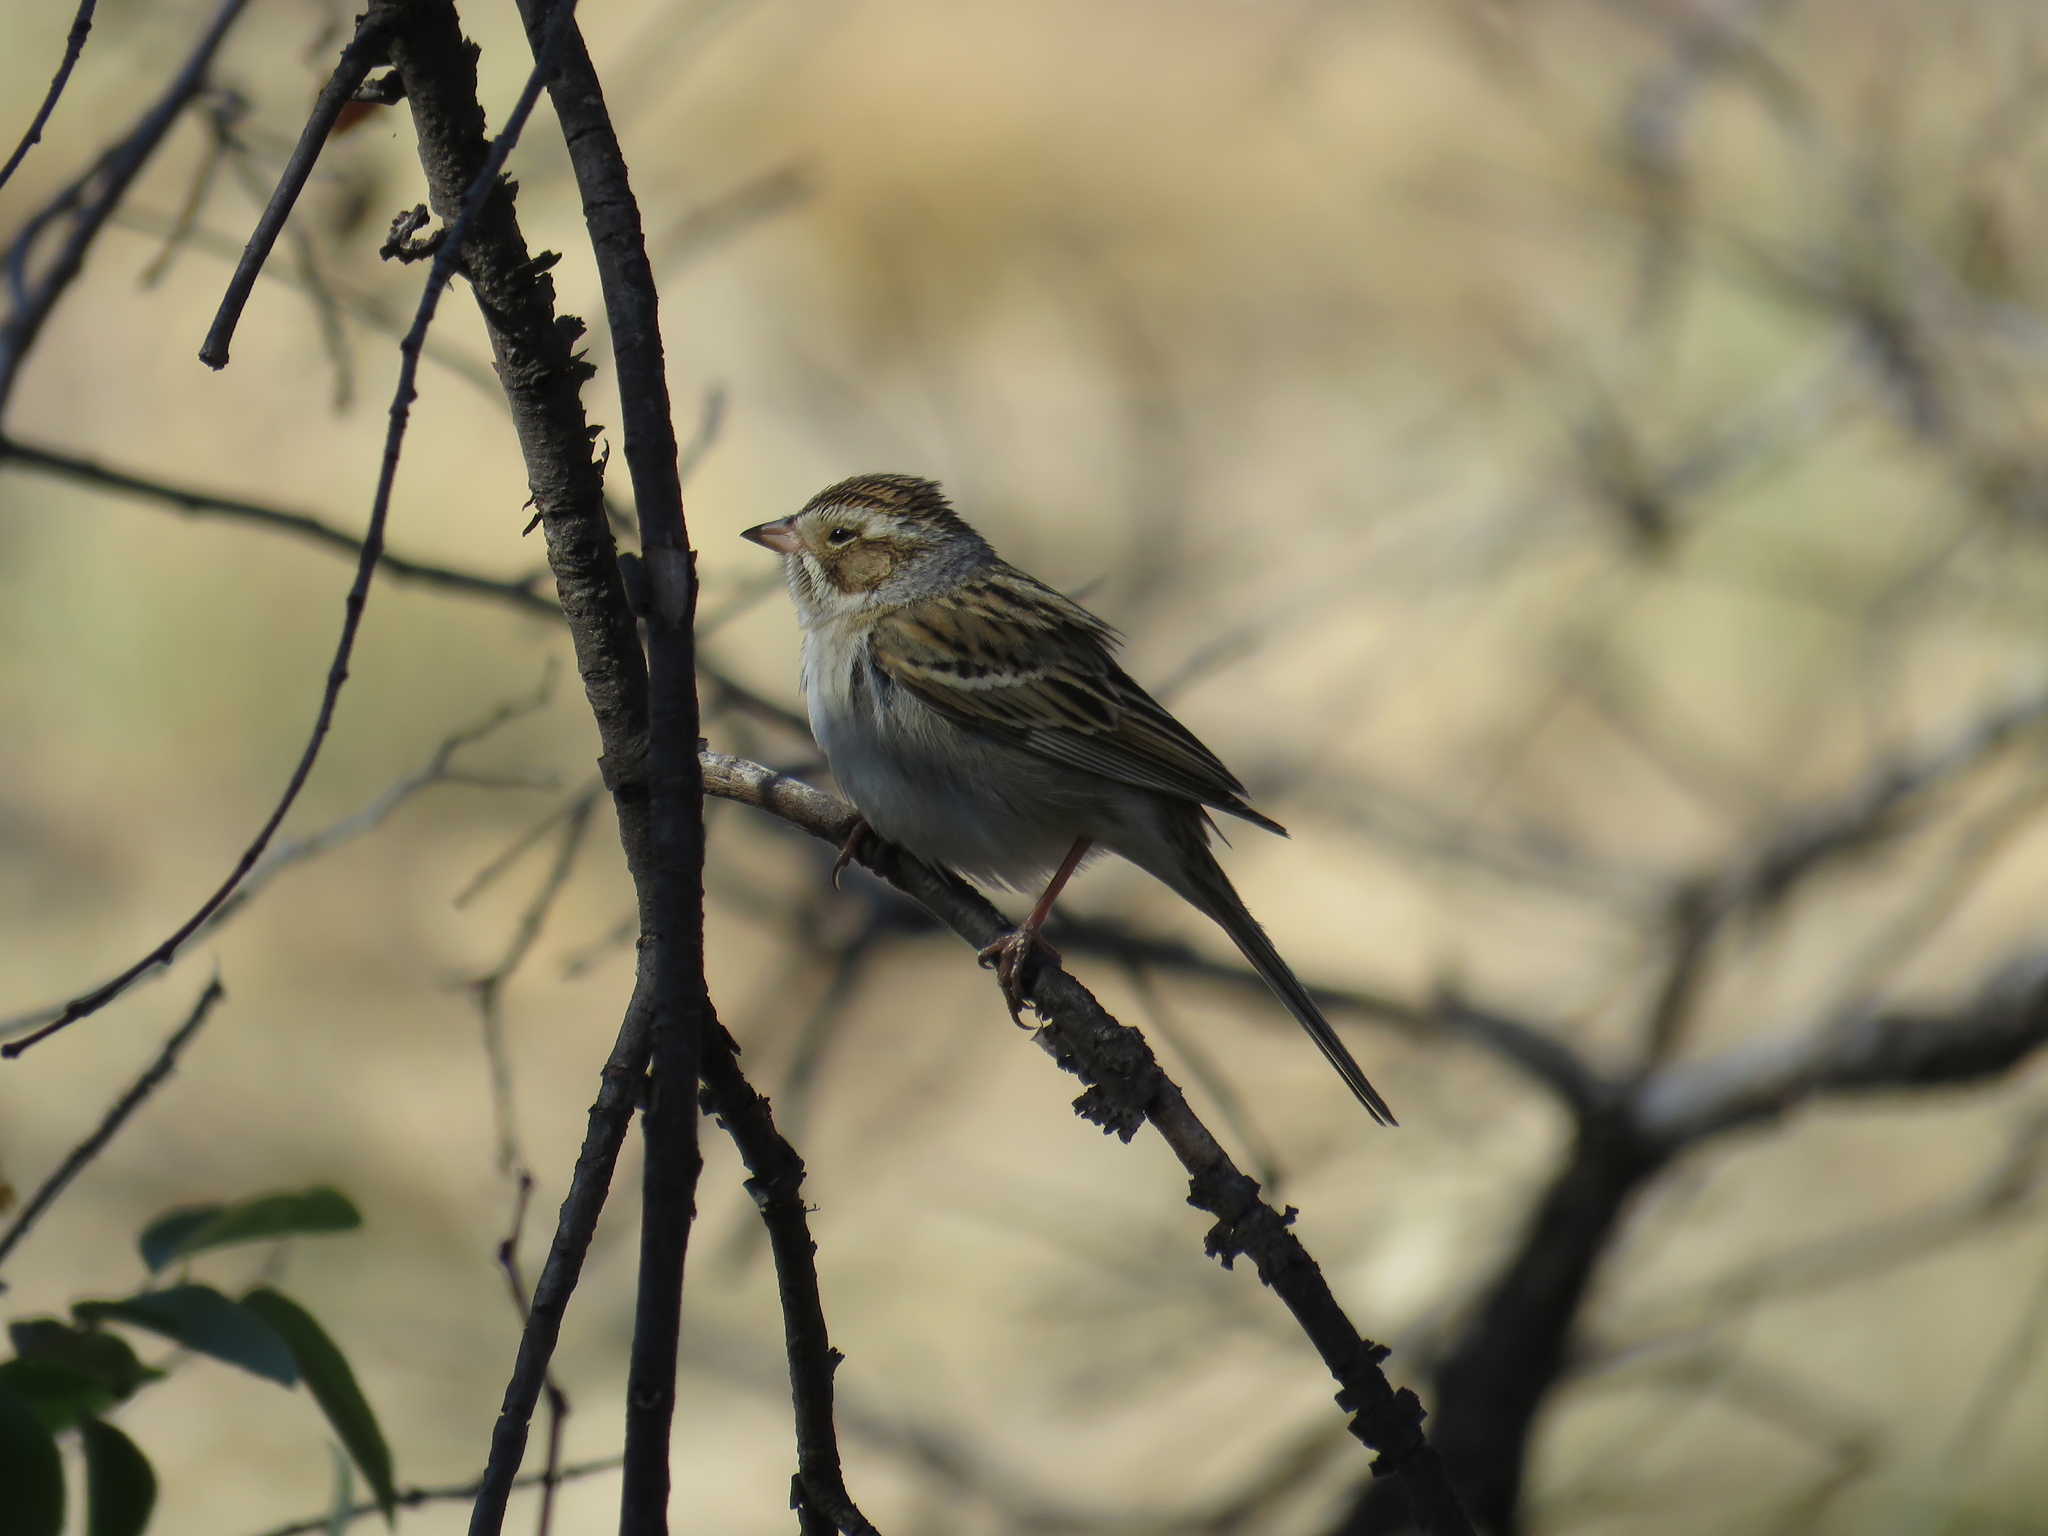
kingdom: Animalia
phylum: Chordata
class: Aves
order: Passeriformes
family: Passerellidae
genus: Spizella
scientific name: Spizella pallida
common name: Clay-colored sparrow
